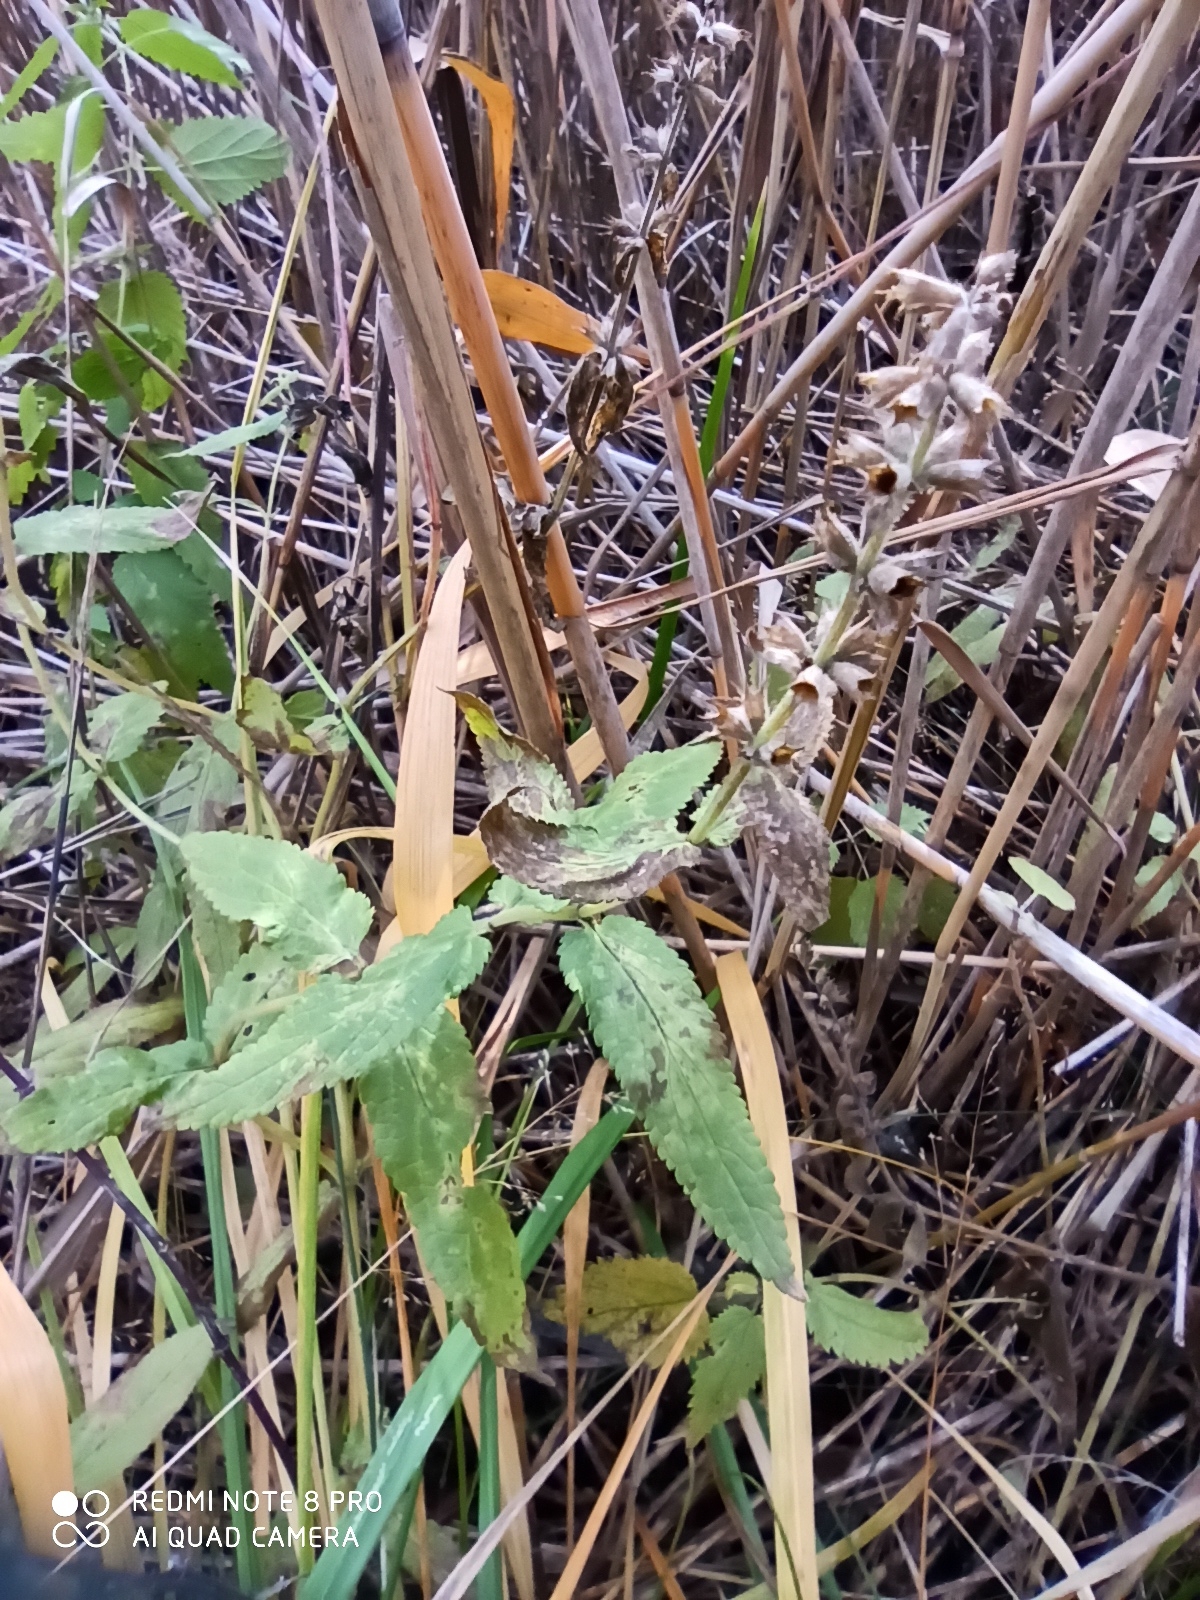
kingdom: Plantae
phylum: Tracheophyta
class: Magnoliopsida
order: Lamiales
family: Lamiaceae
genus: Stachys
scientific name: Stachys palustris
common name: Marsh woundwort
